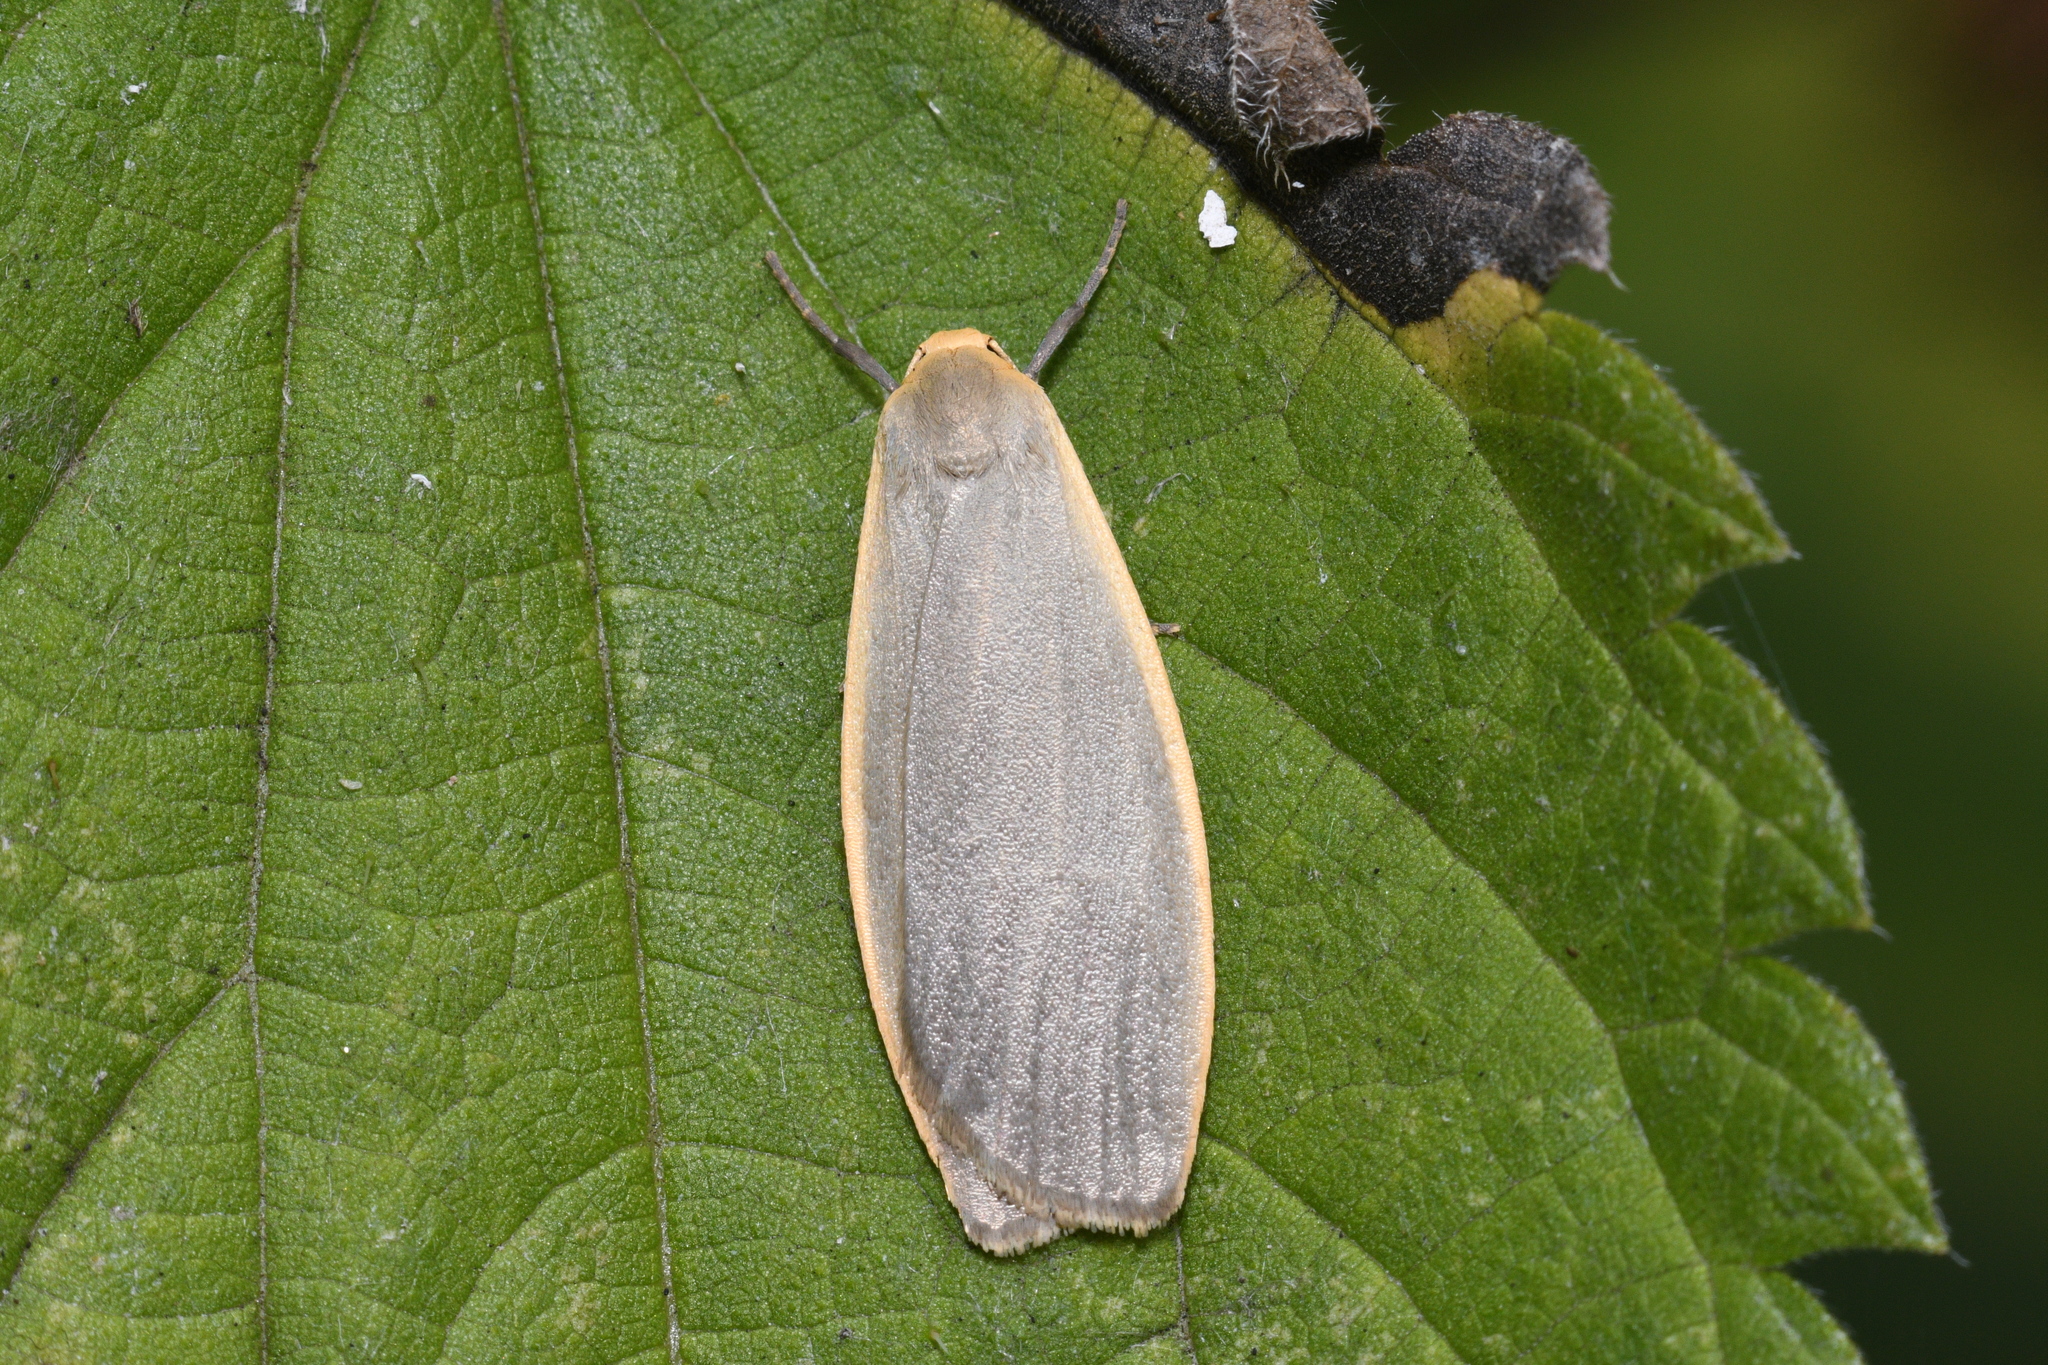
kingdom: Animalia
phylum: Arthropoda
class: Insecta
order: Lepidoptera
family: Erebidae
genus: Collita
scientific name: Collita griseola
